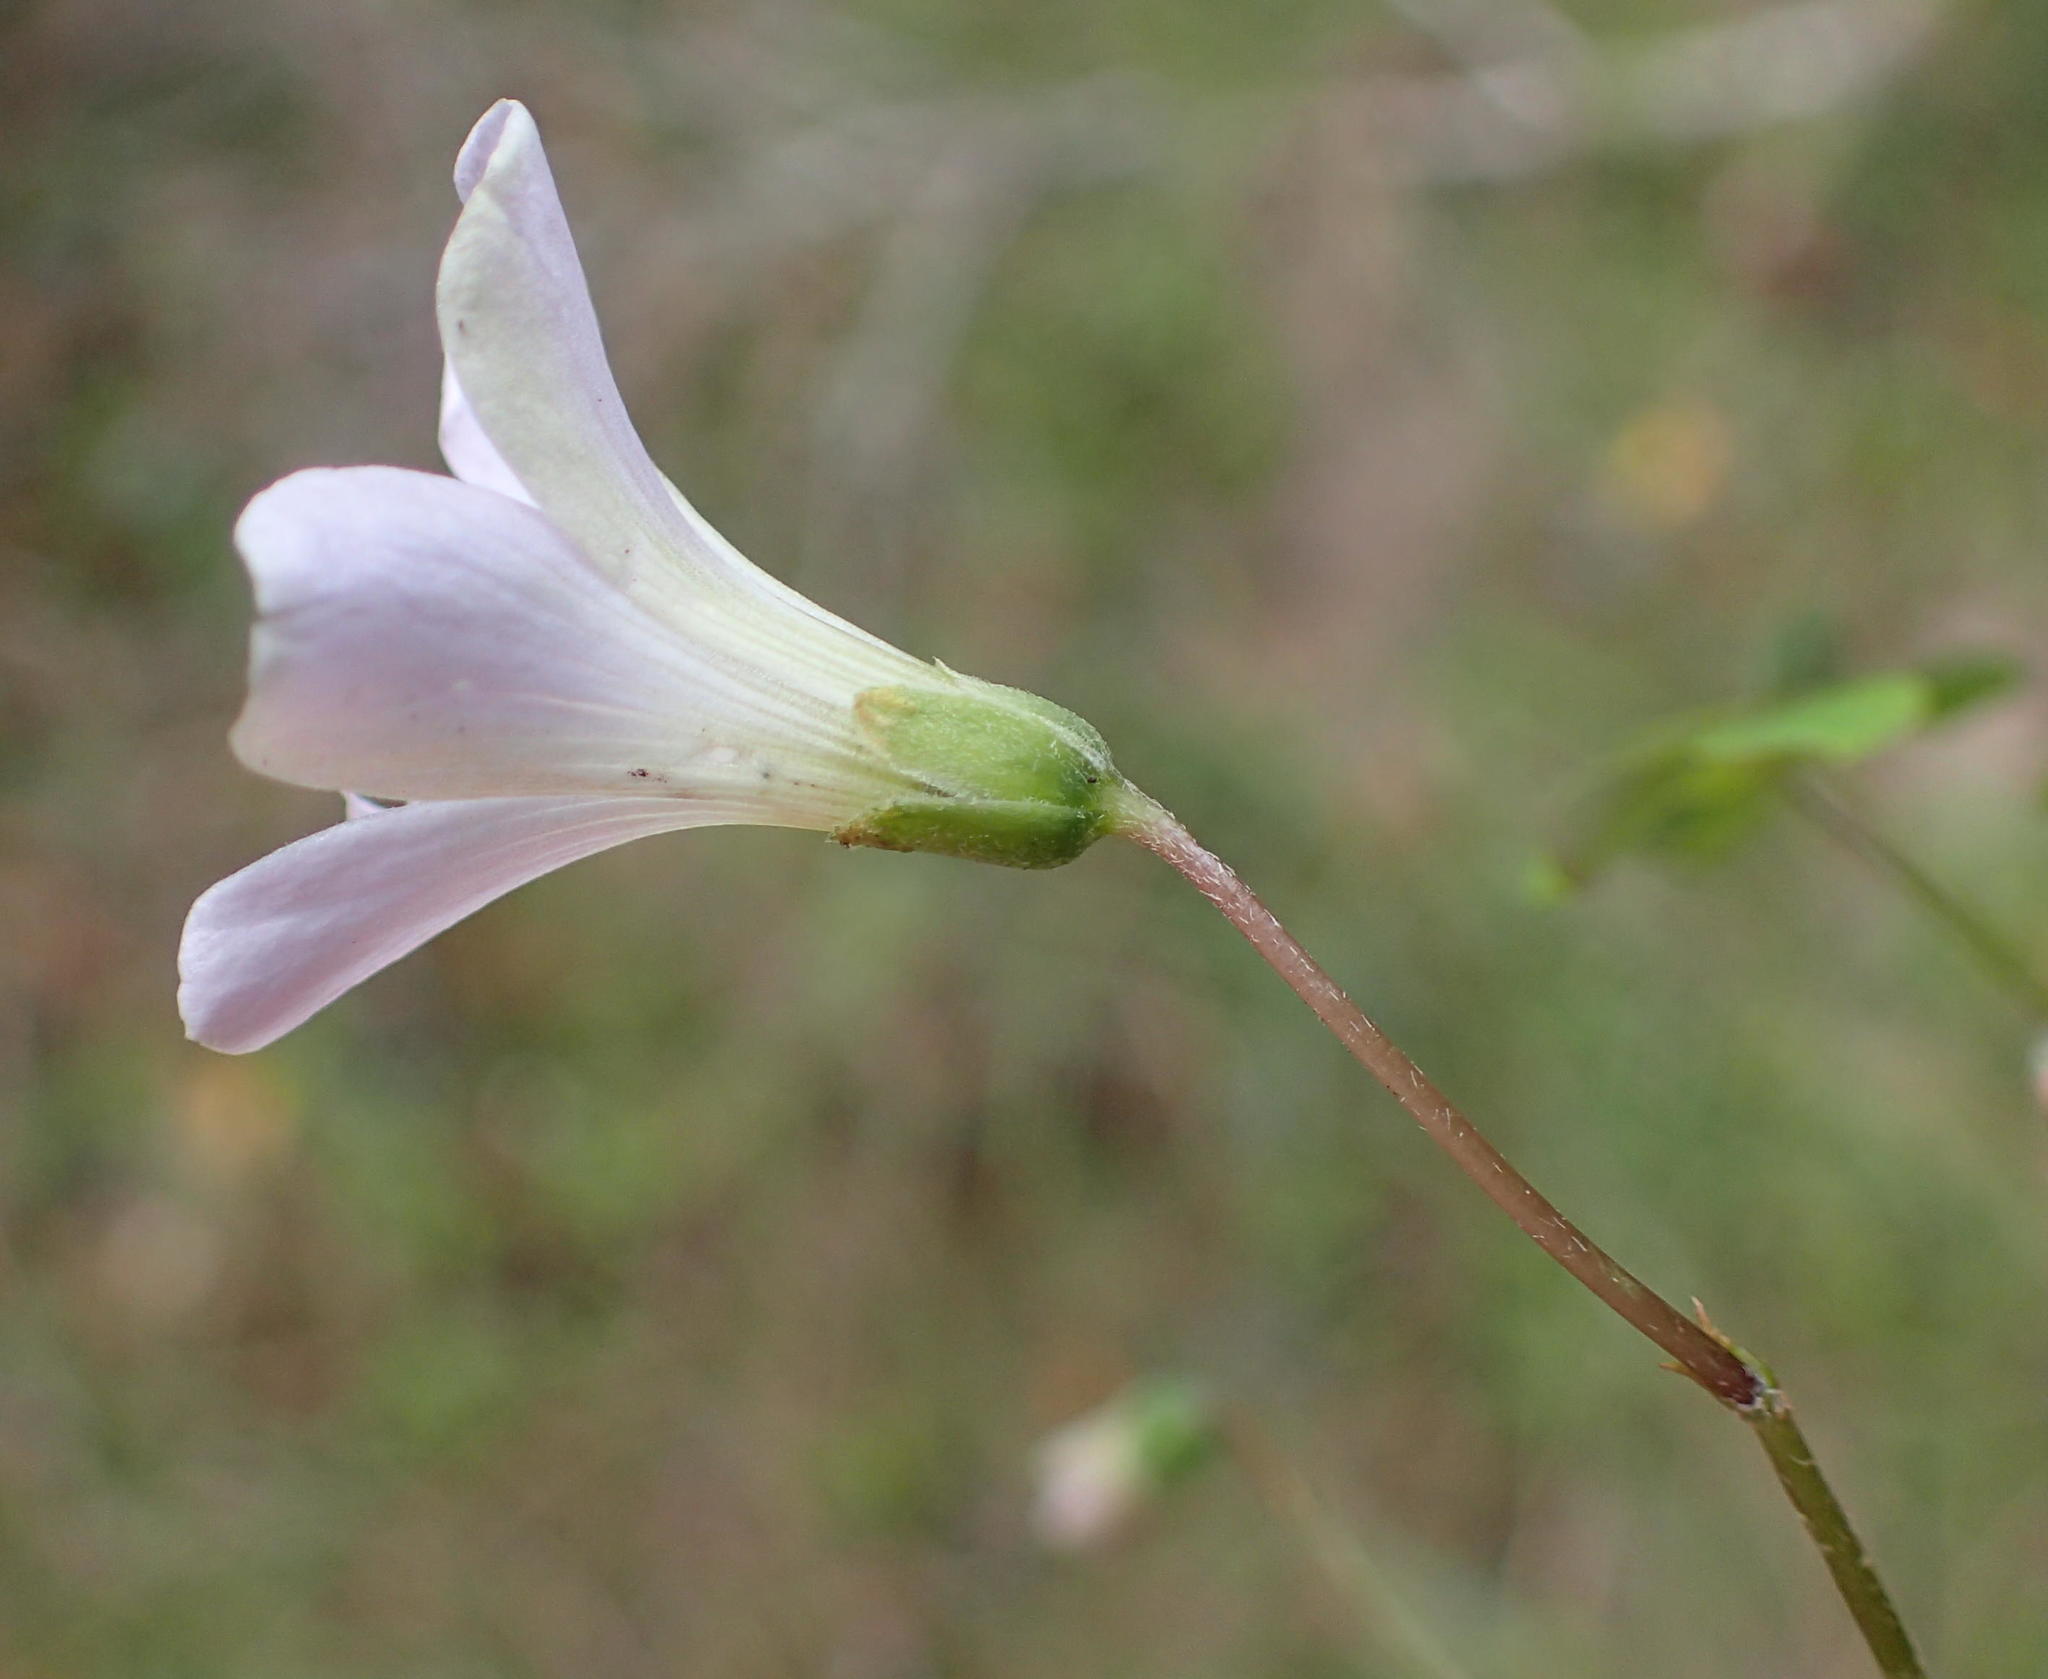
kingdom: Plantae
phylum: Tracheophyta
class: Magnoliopsida
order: Oxalidales
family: Oxalidaceae
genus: Oxalis
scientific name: Oxalis incarnata
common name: Pale pink-sorrel
